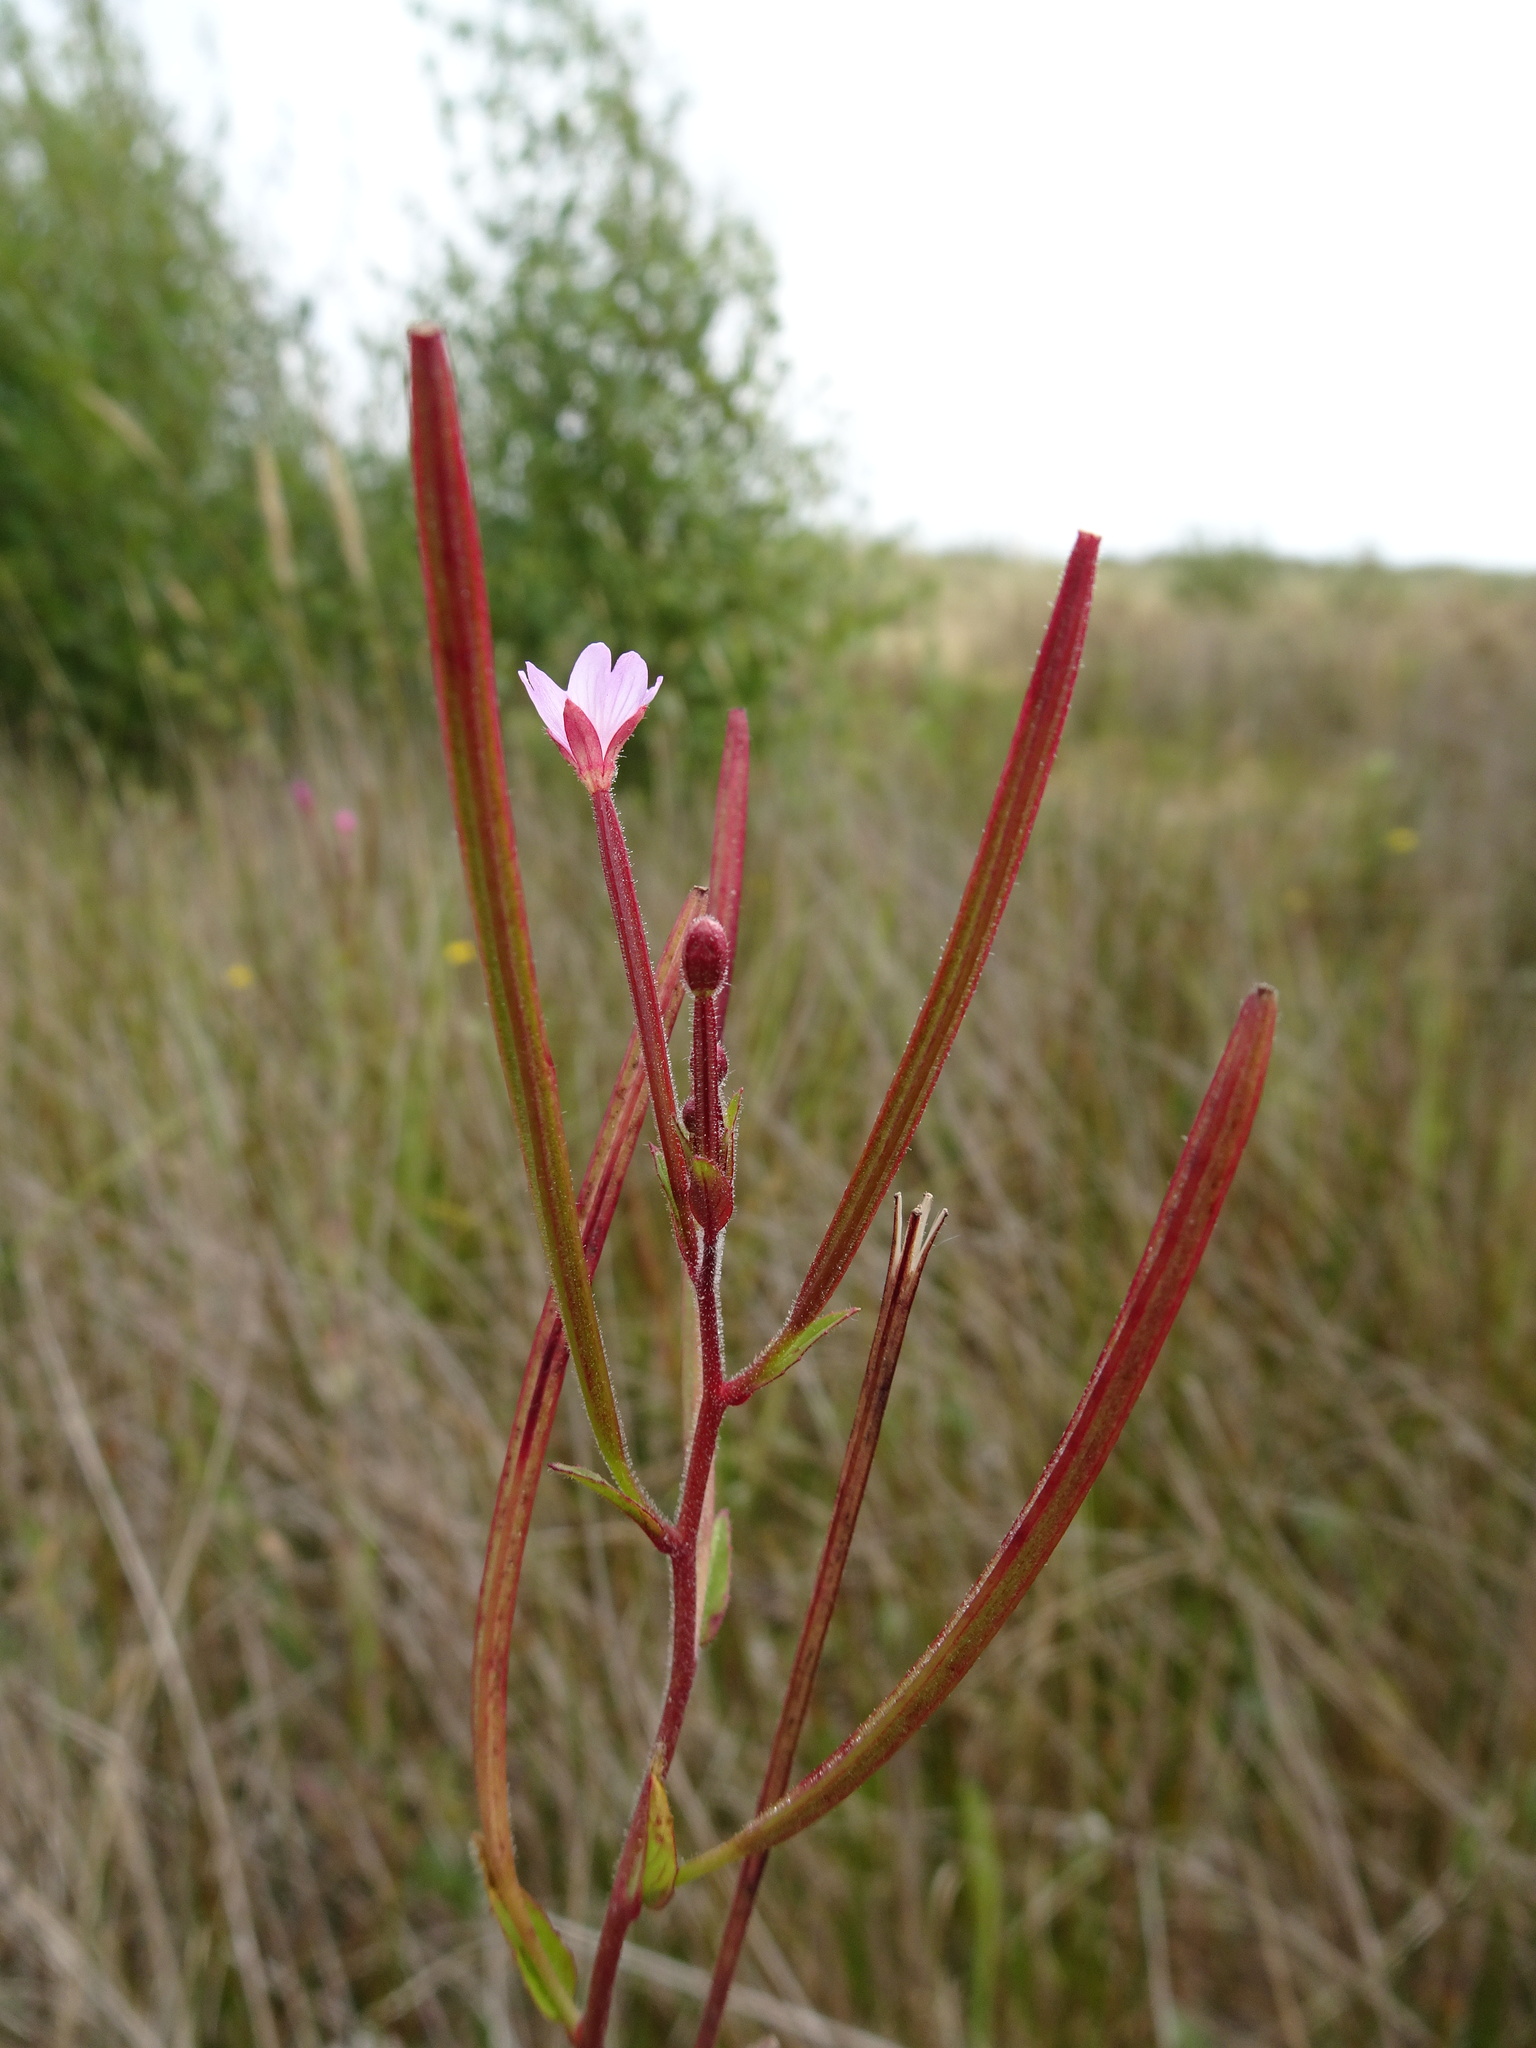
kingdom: Plantae
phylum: Tracheophyta
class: Magnoliopsida
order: Myrtales
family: Onagraceae
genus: Epilobium
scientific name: Epilobium parviflorum
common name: Hoary willowherb
